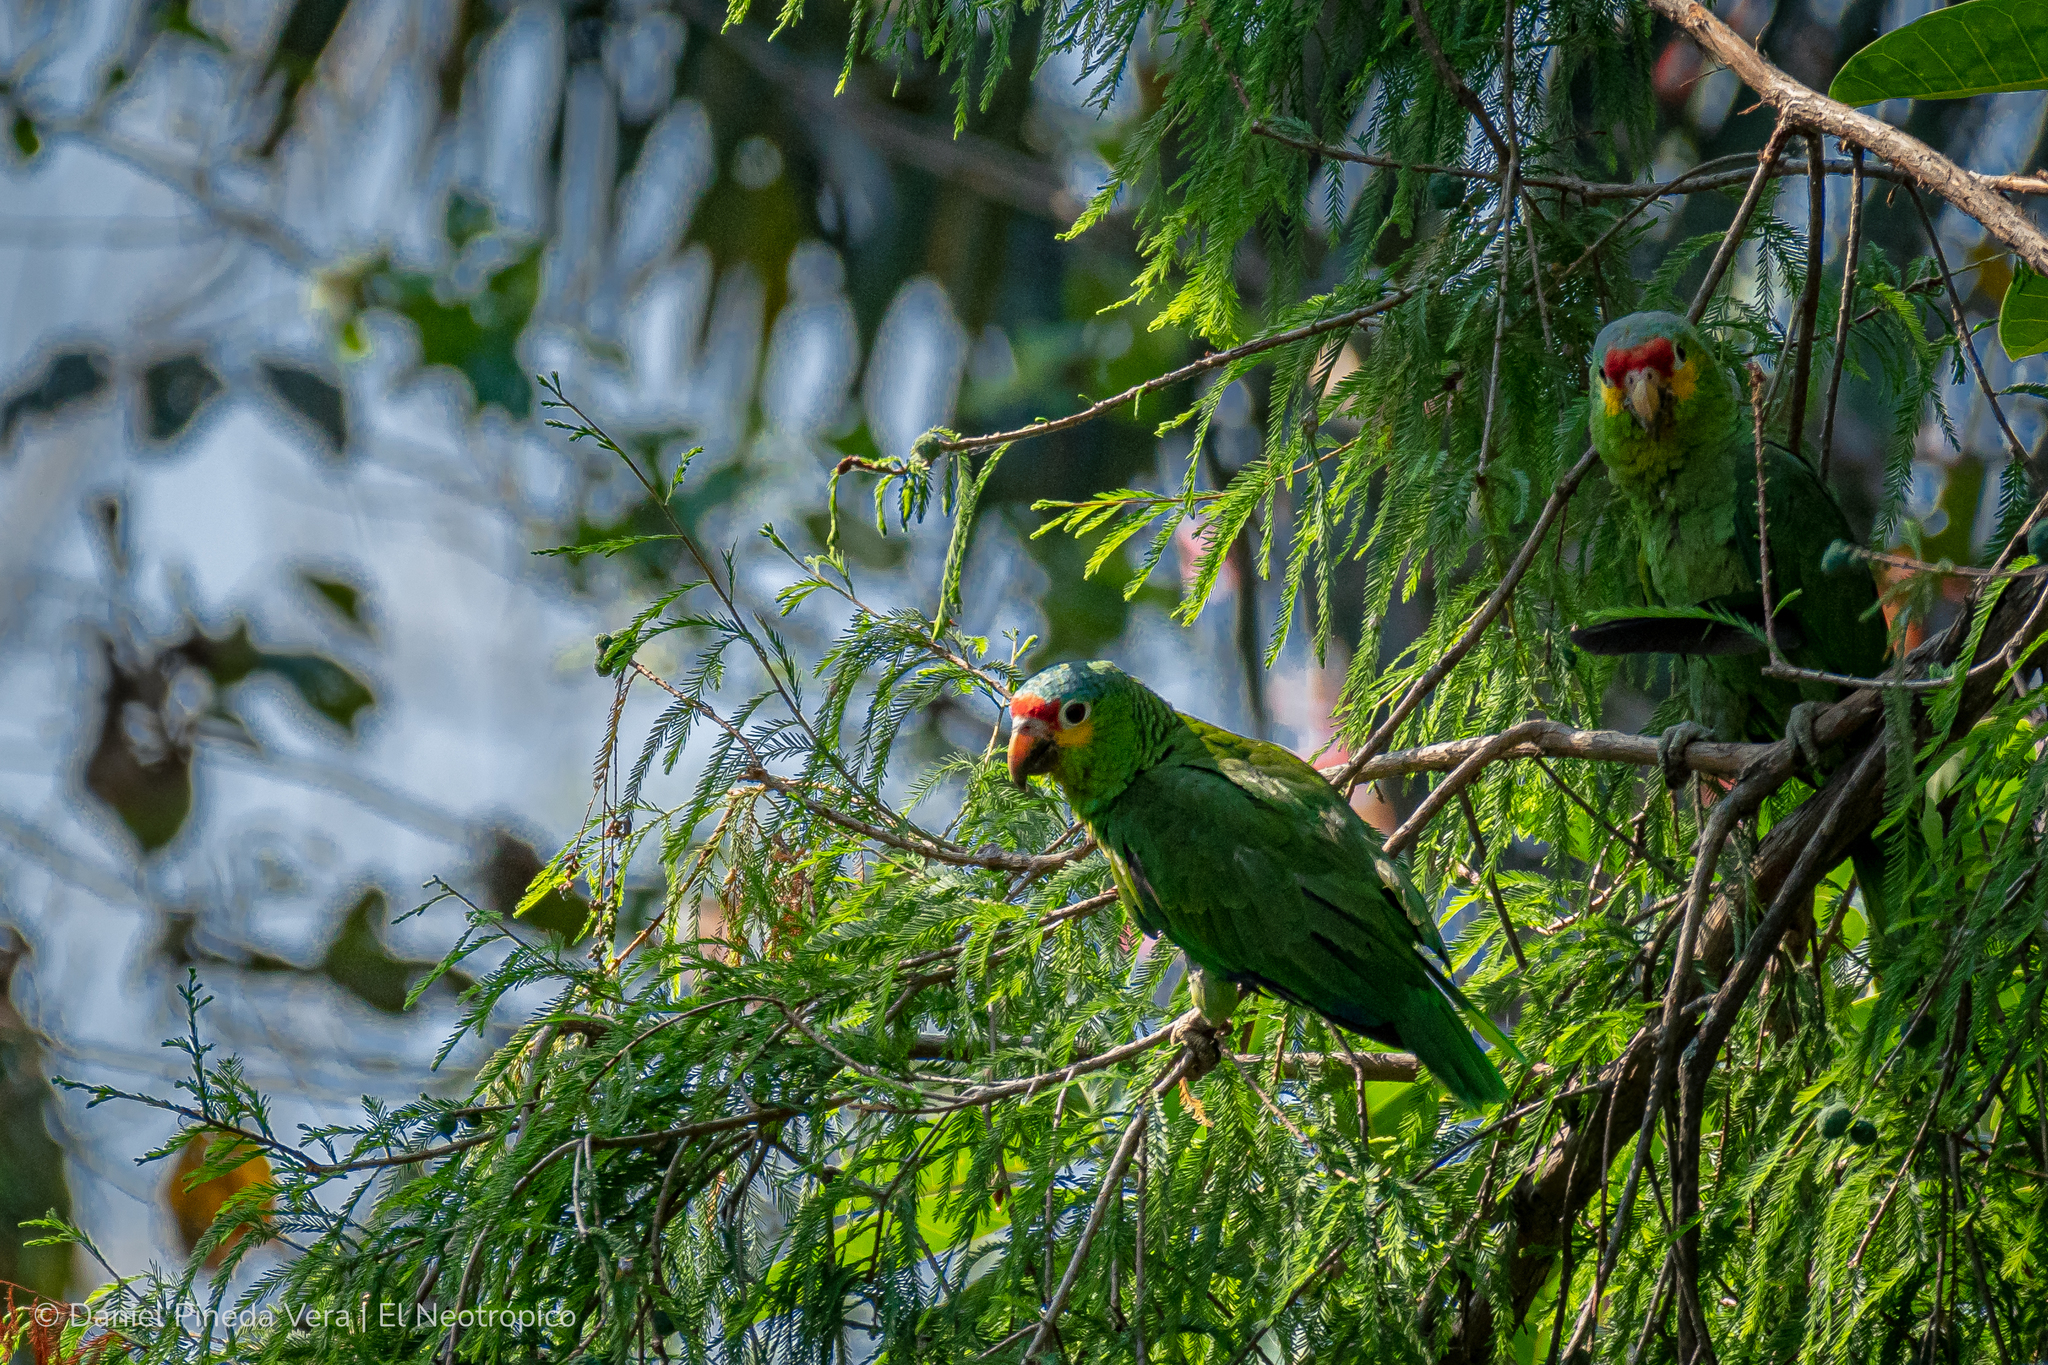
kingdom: Animalia
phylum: Chordata
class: Aves
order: Psittaciformes
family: Psittacidae
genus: Amazona
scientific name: Amazona autumnalis
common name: Red-lored amazon
